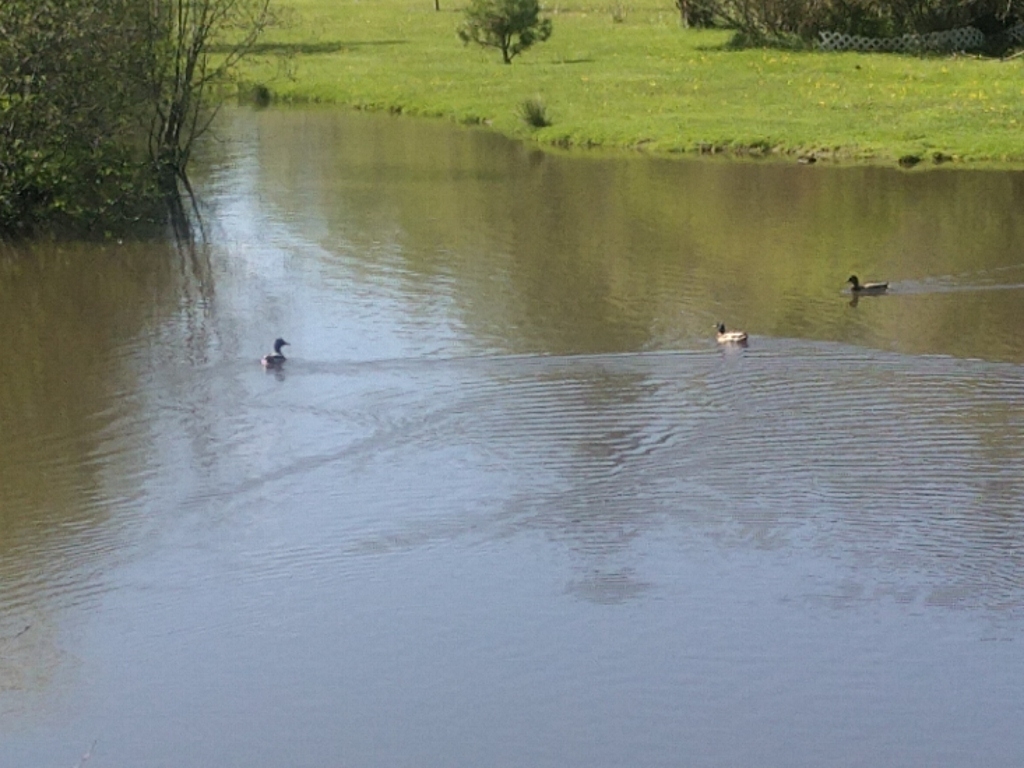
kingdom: Animalia
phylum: Chordata
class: Aves
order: Anseriformes
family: Anatidae
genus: Anas
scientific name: Anas platyrhynchos
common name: Mallard
